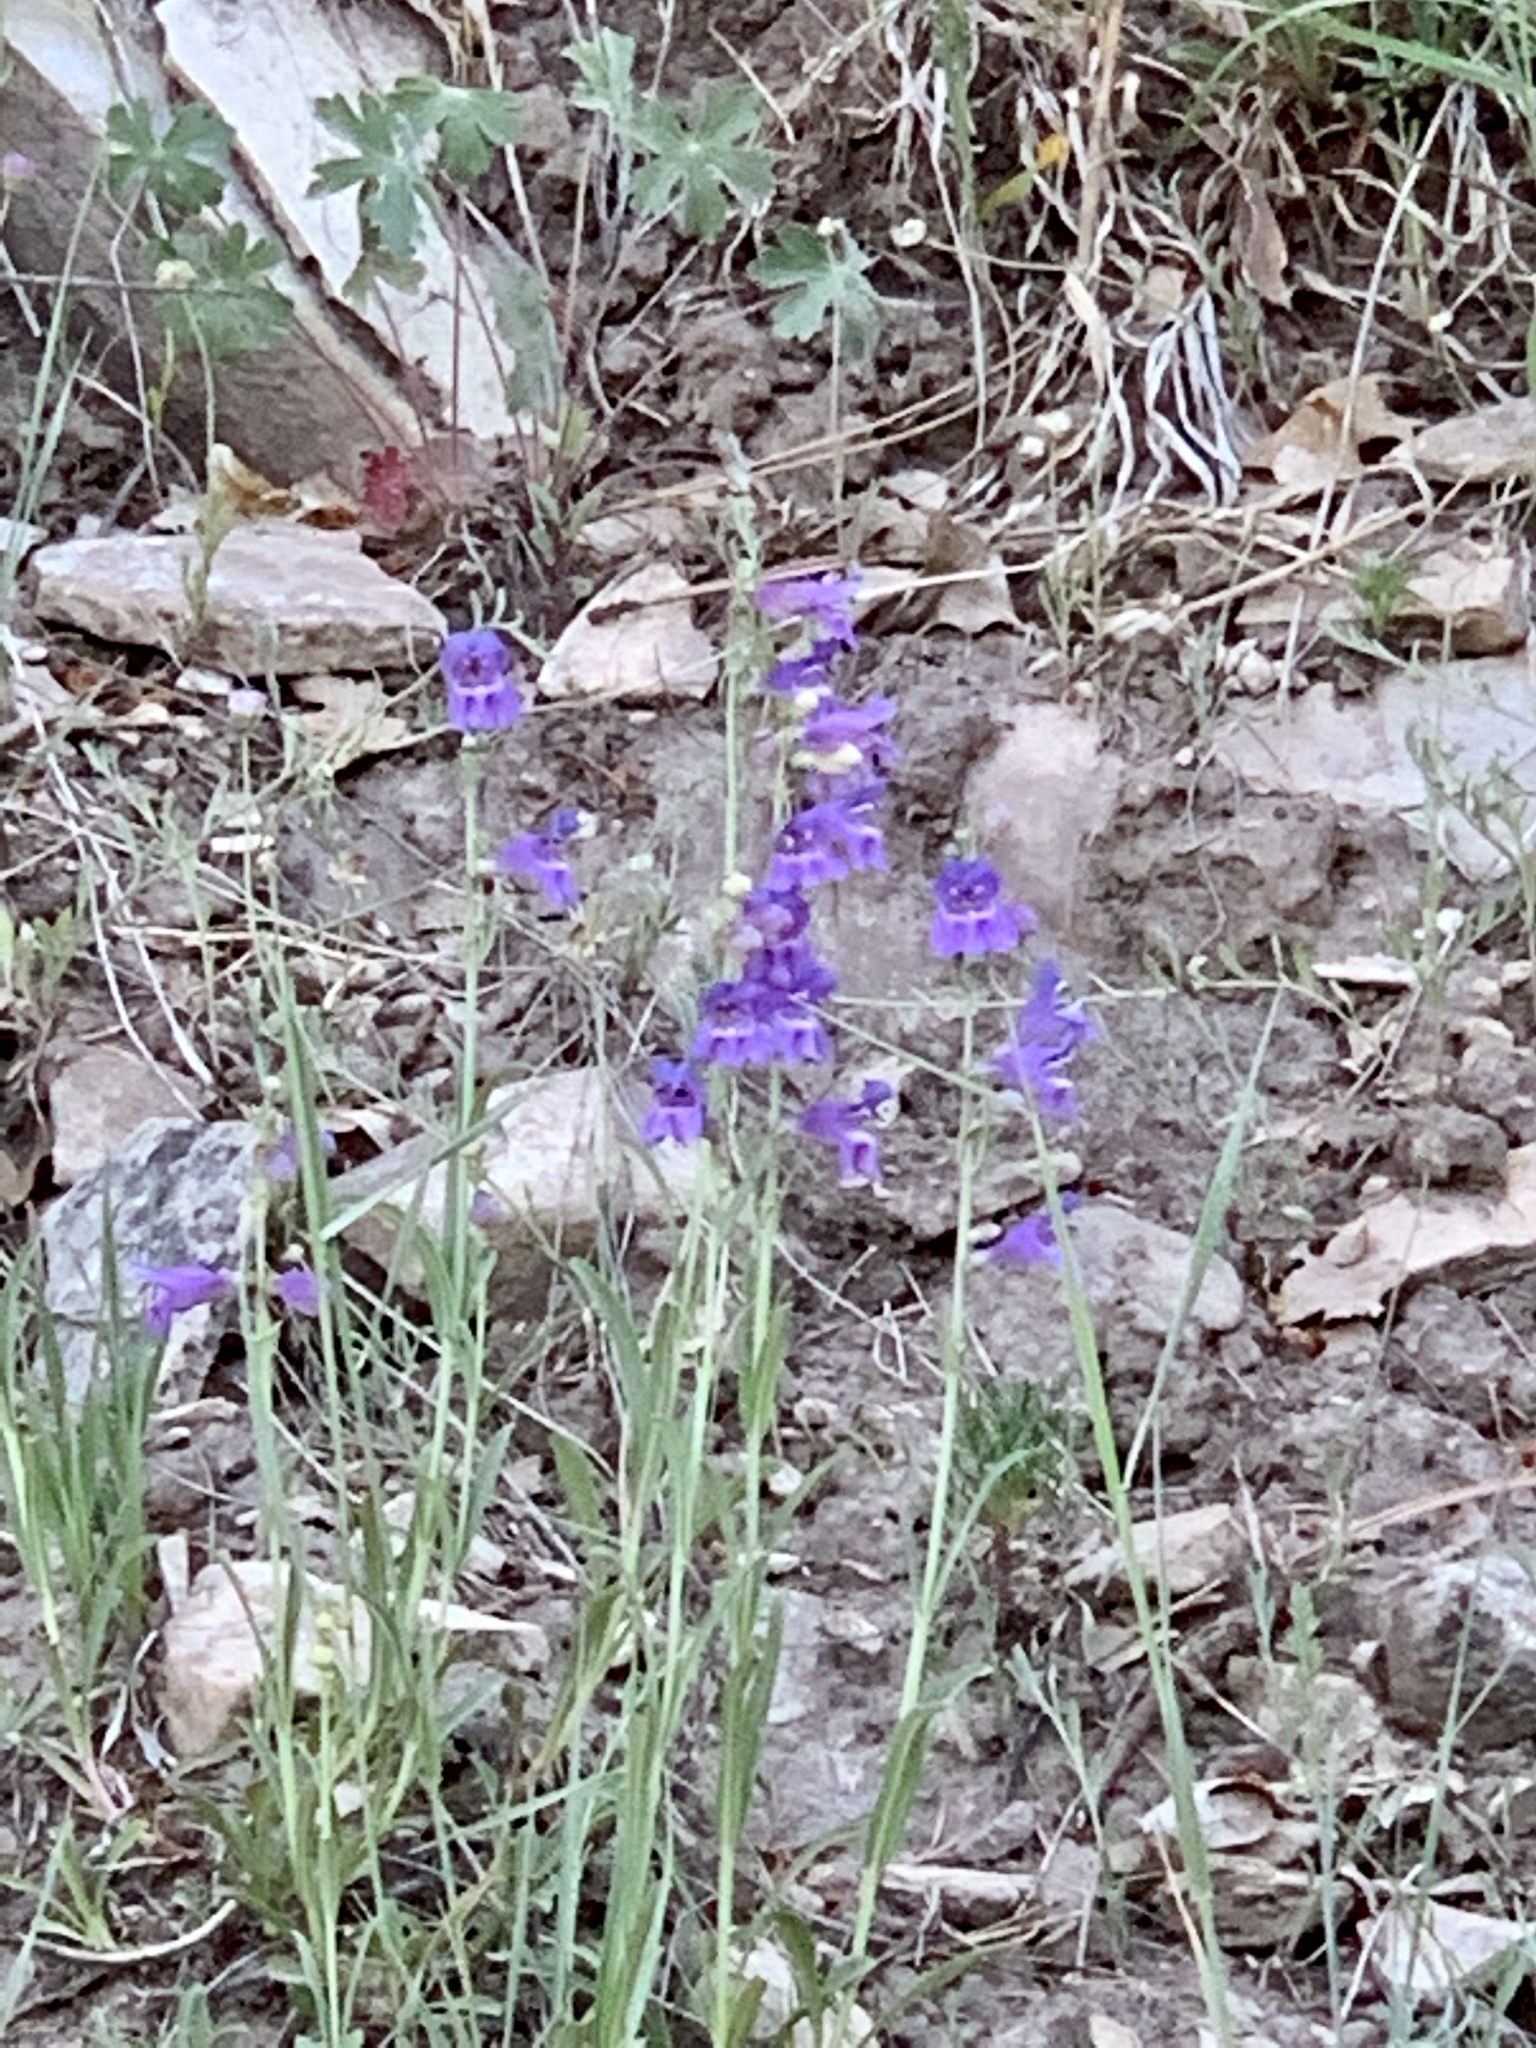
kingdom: Plantae
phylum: Tracheophyta
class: Magnoliopsida
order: Lamiales
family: Plantaginaceae
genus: Penstemon
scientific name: Penstemon neomexicanus
